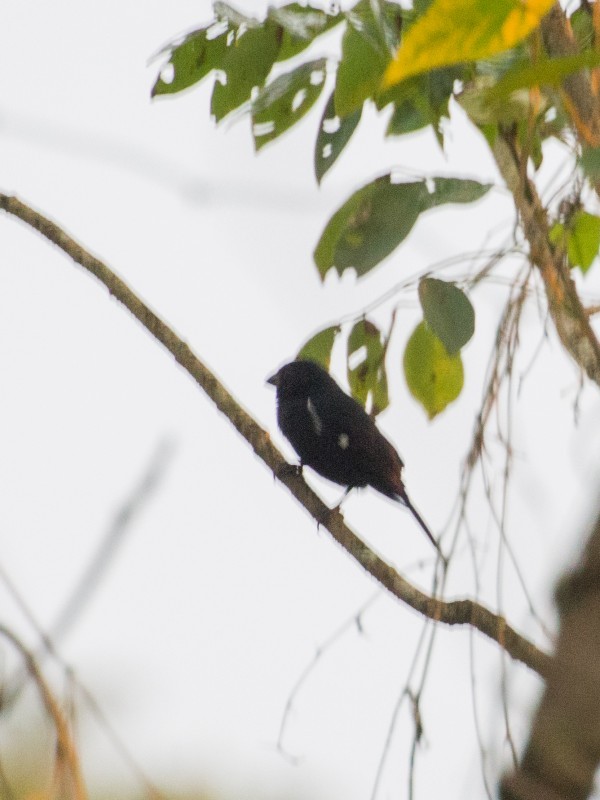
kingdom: Animalia
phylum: Chordata
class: Aves
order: Passeriformes
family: Thraupidae
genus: Sporophila
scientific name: Sporophila corvina
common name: Variable seedeater
